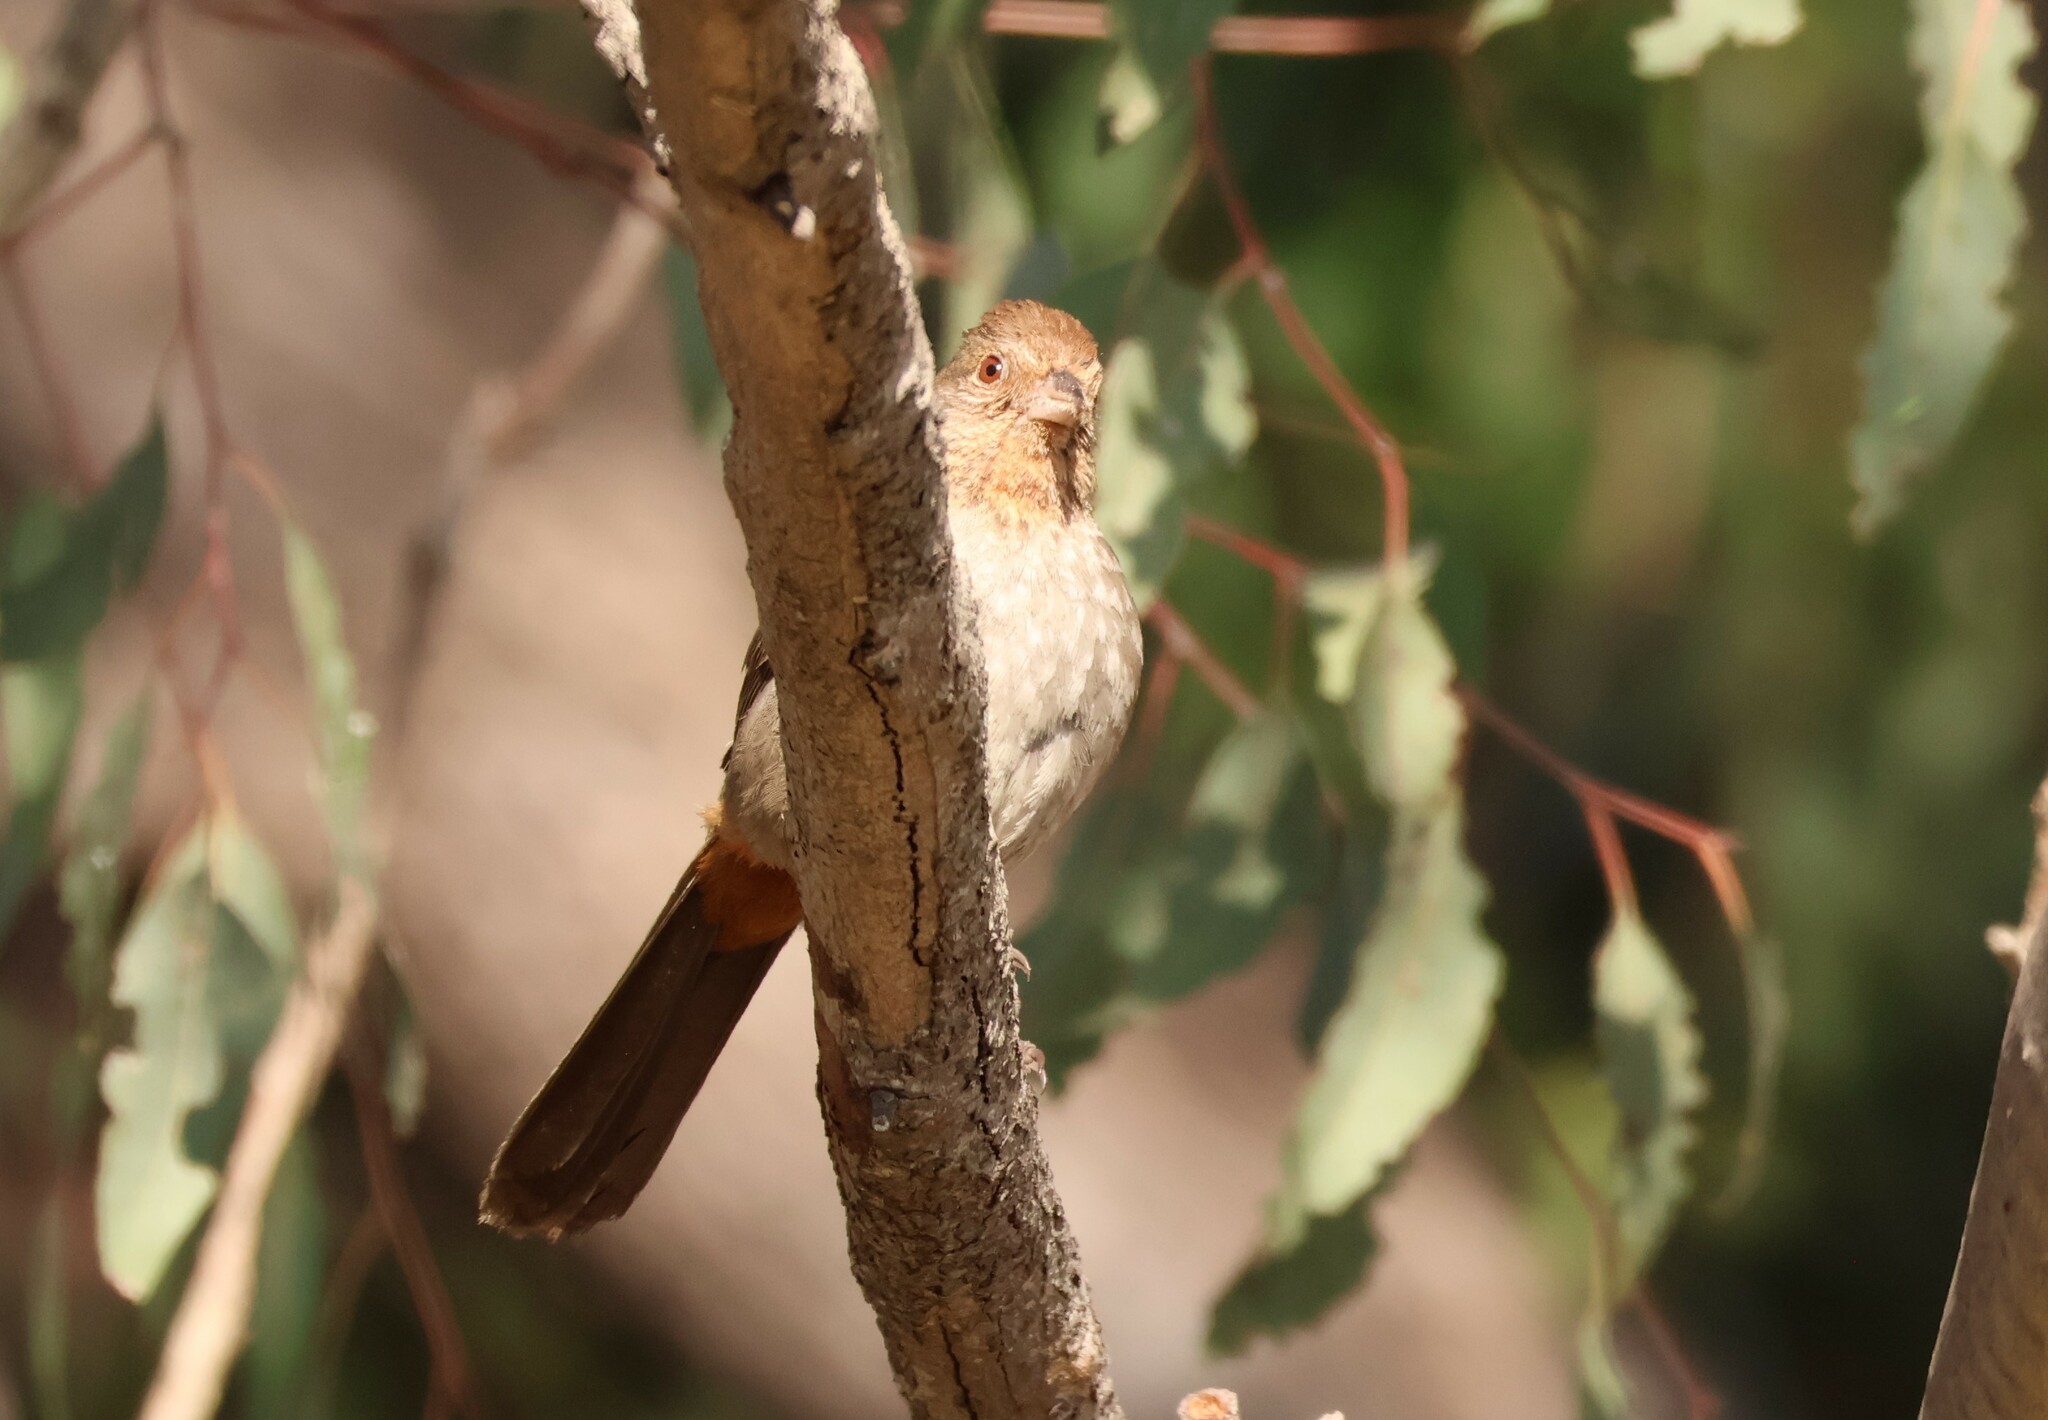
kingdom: Animalia
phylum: Chordata
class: Aves
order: Passeriformes
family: Passerellidae
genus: Melozone
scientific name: Melozone crissalis
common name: California towhee
